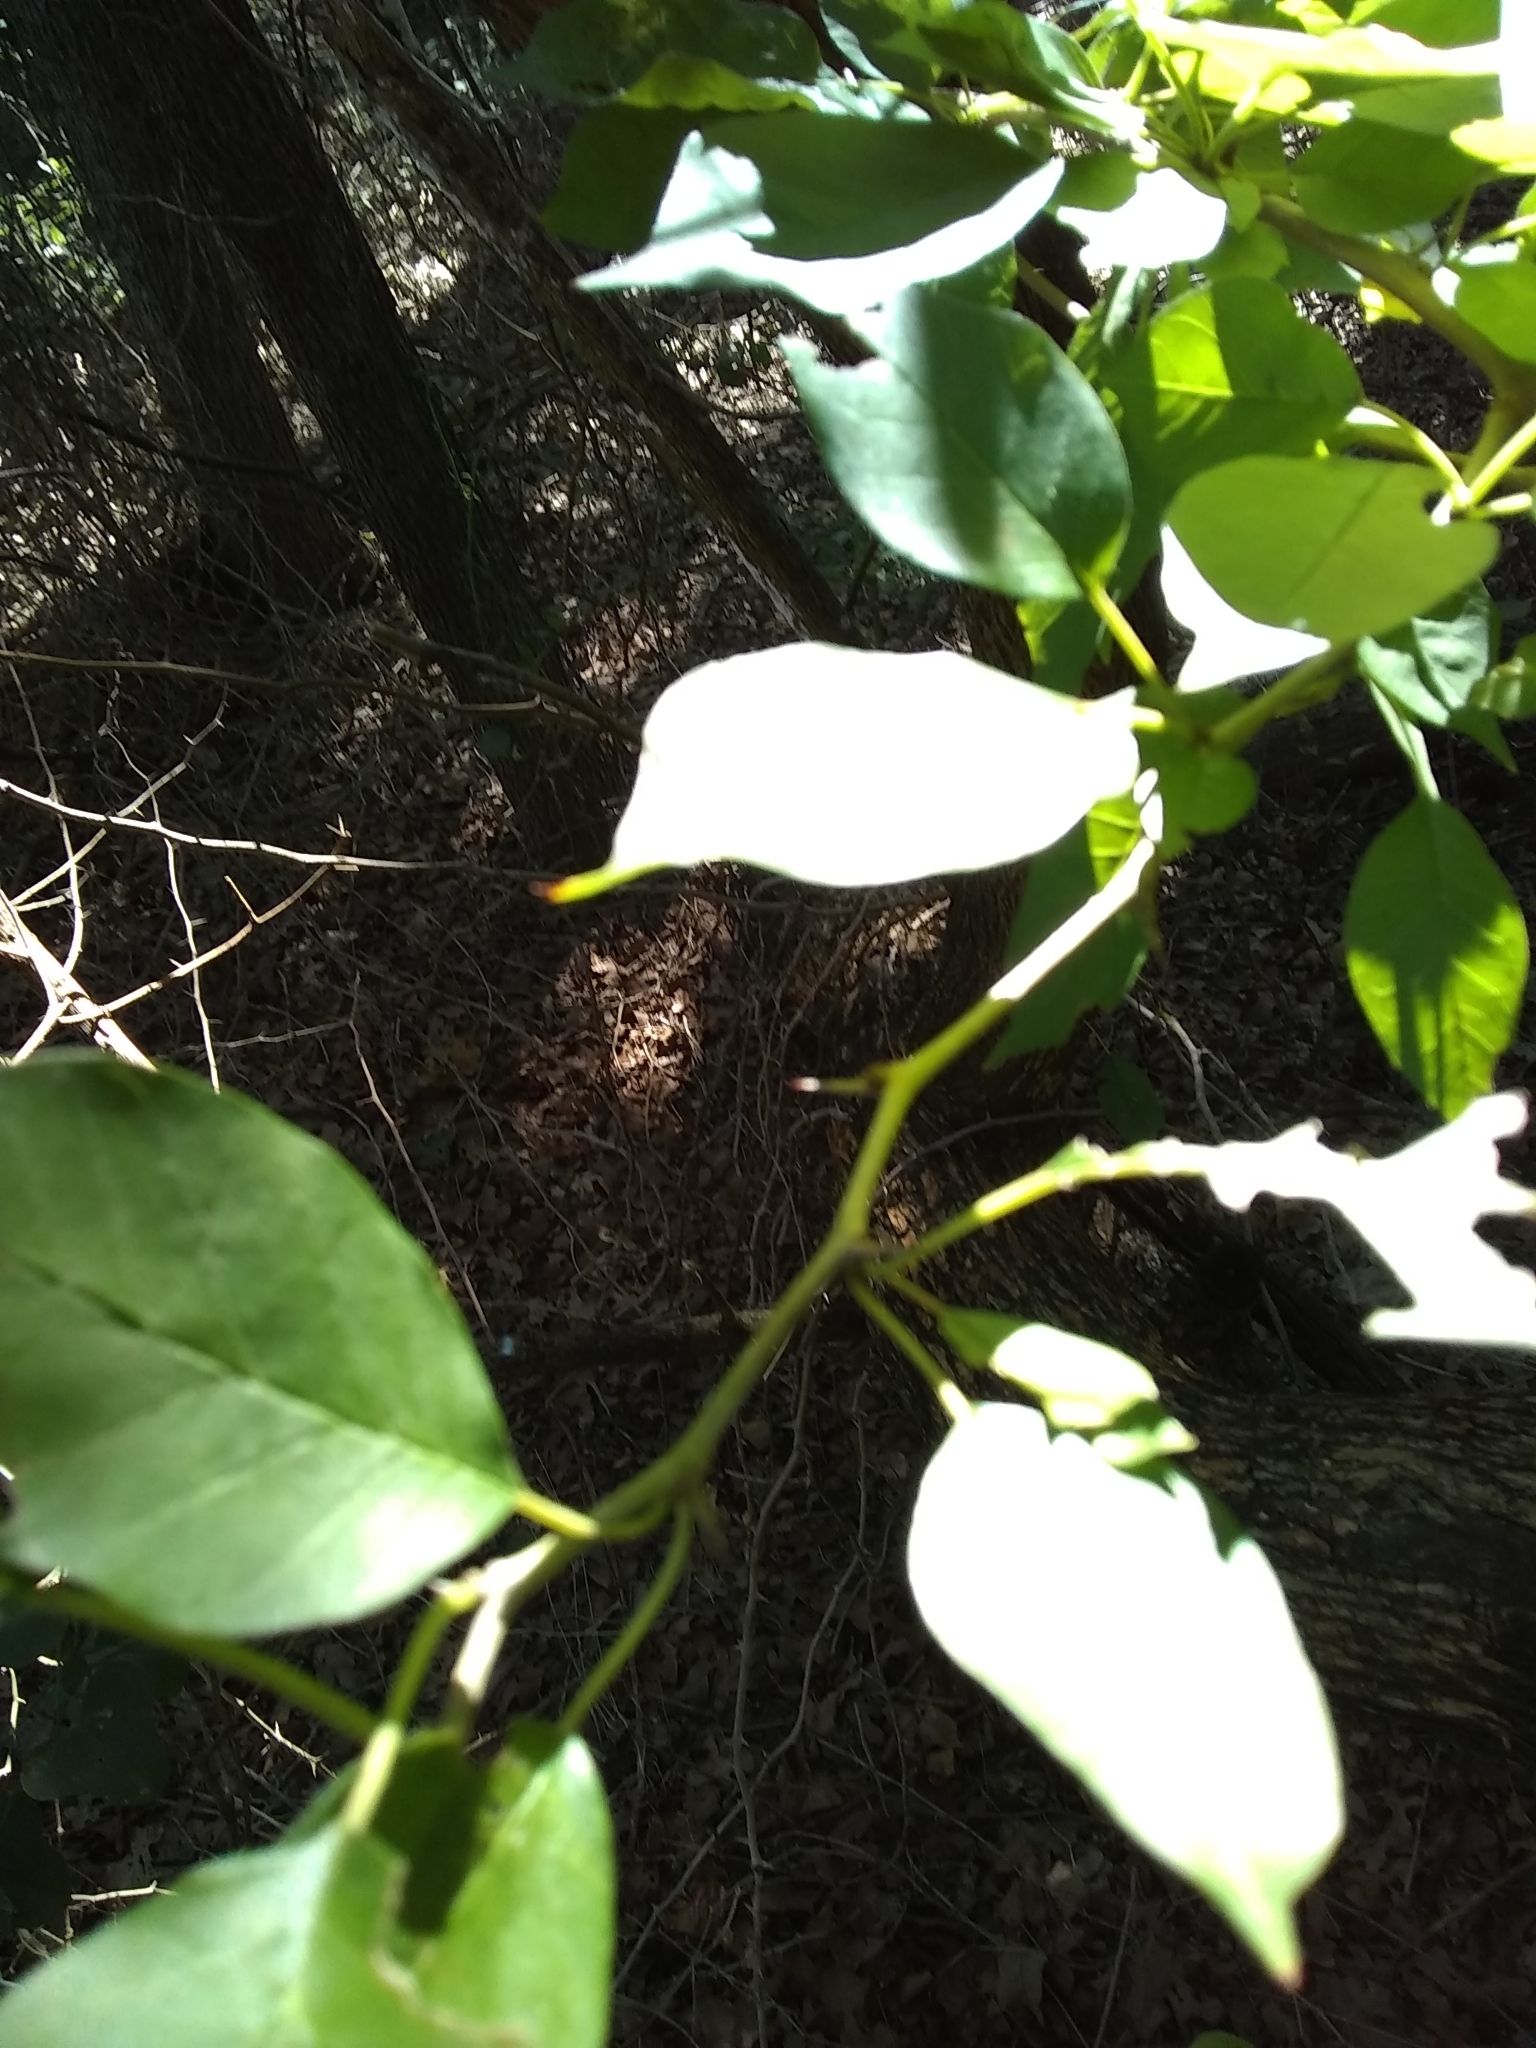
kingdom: Plantae
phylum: Tracheophyta
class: Magnoliopsida
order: Rosales
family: Moraceae
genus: Maclura
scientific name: Maclura pomifera
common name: Osage-orange
